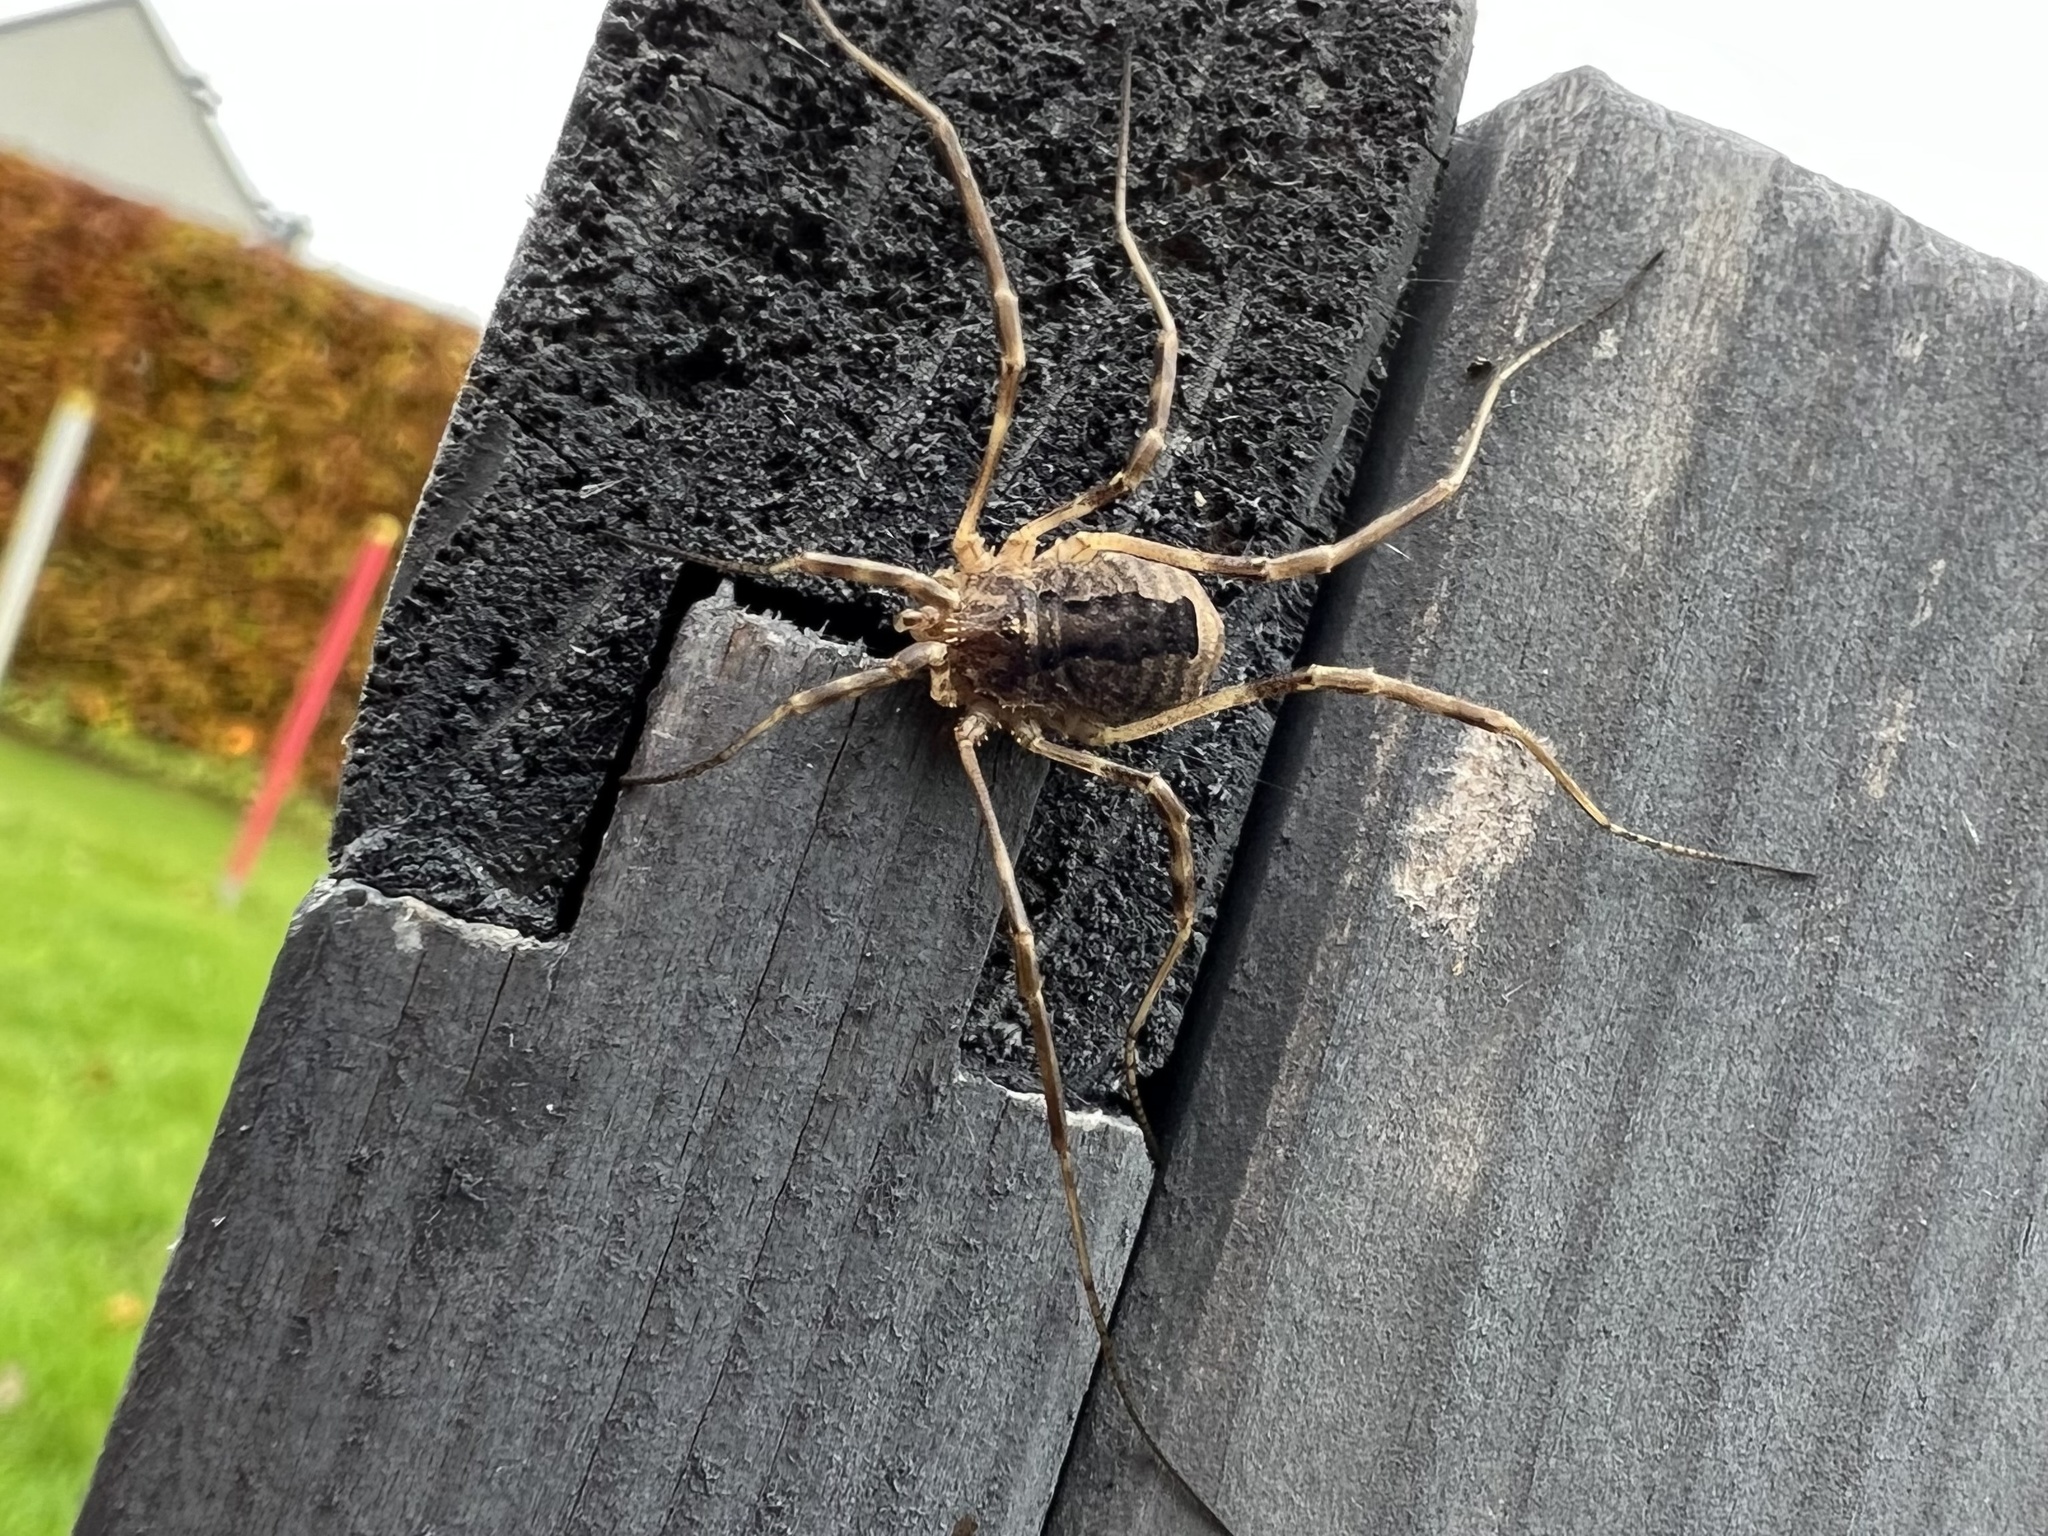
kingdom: Animalia
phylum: Arthropoda
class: Arachnida
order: Opiliones
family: Phalangiidae
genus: Odiellus
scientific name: Odiellus spinosus
